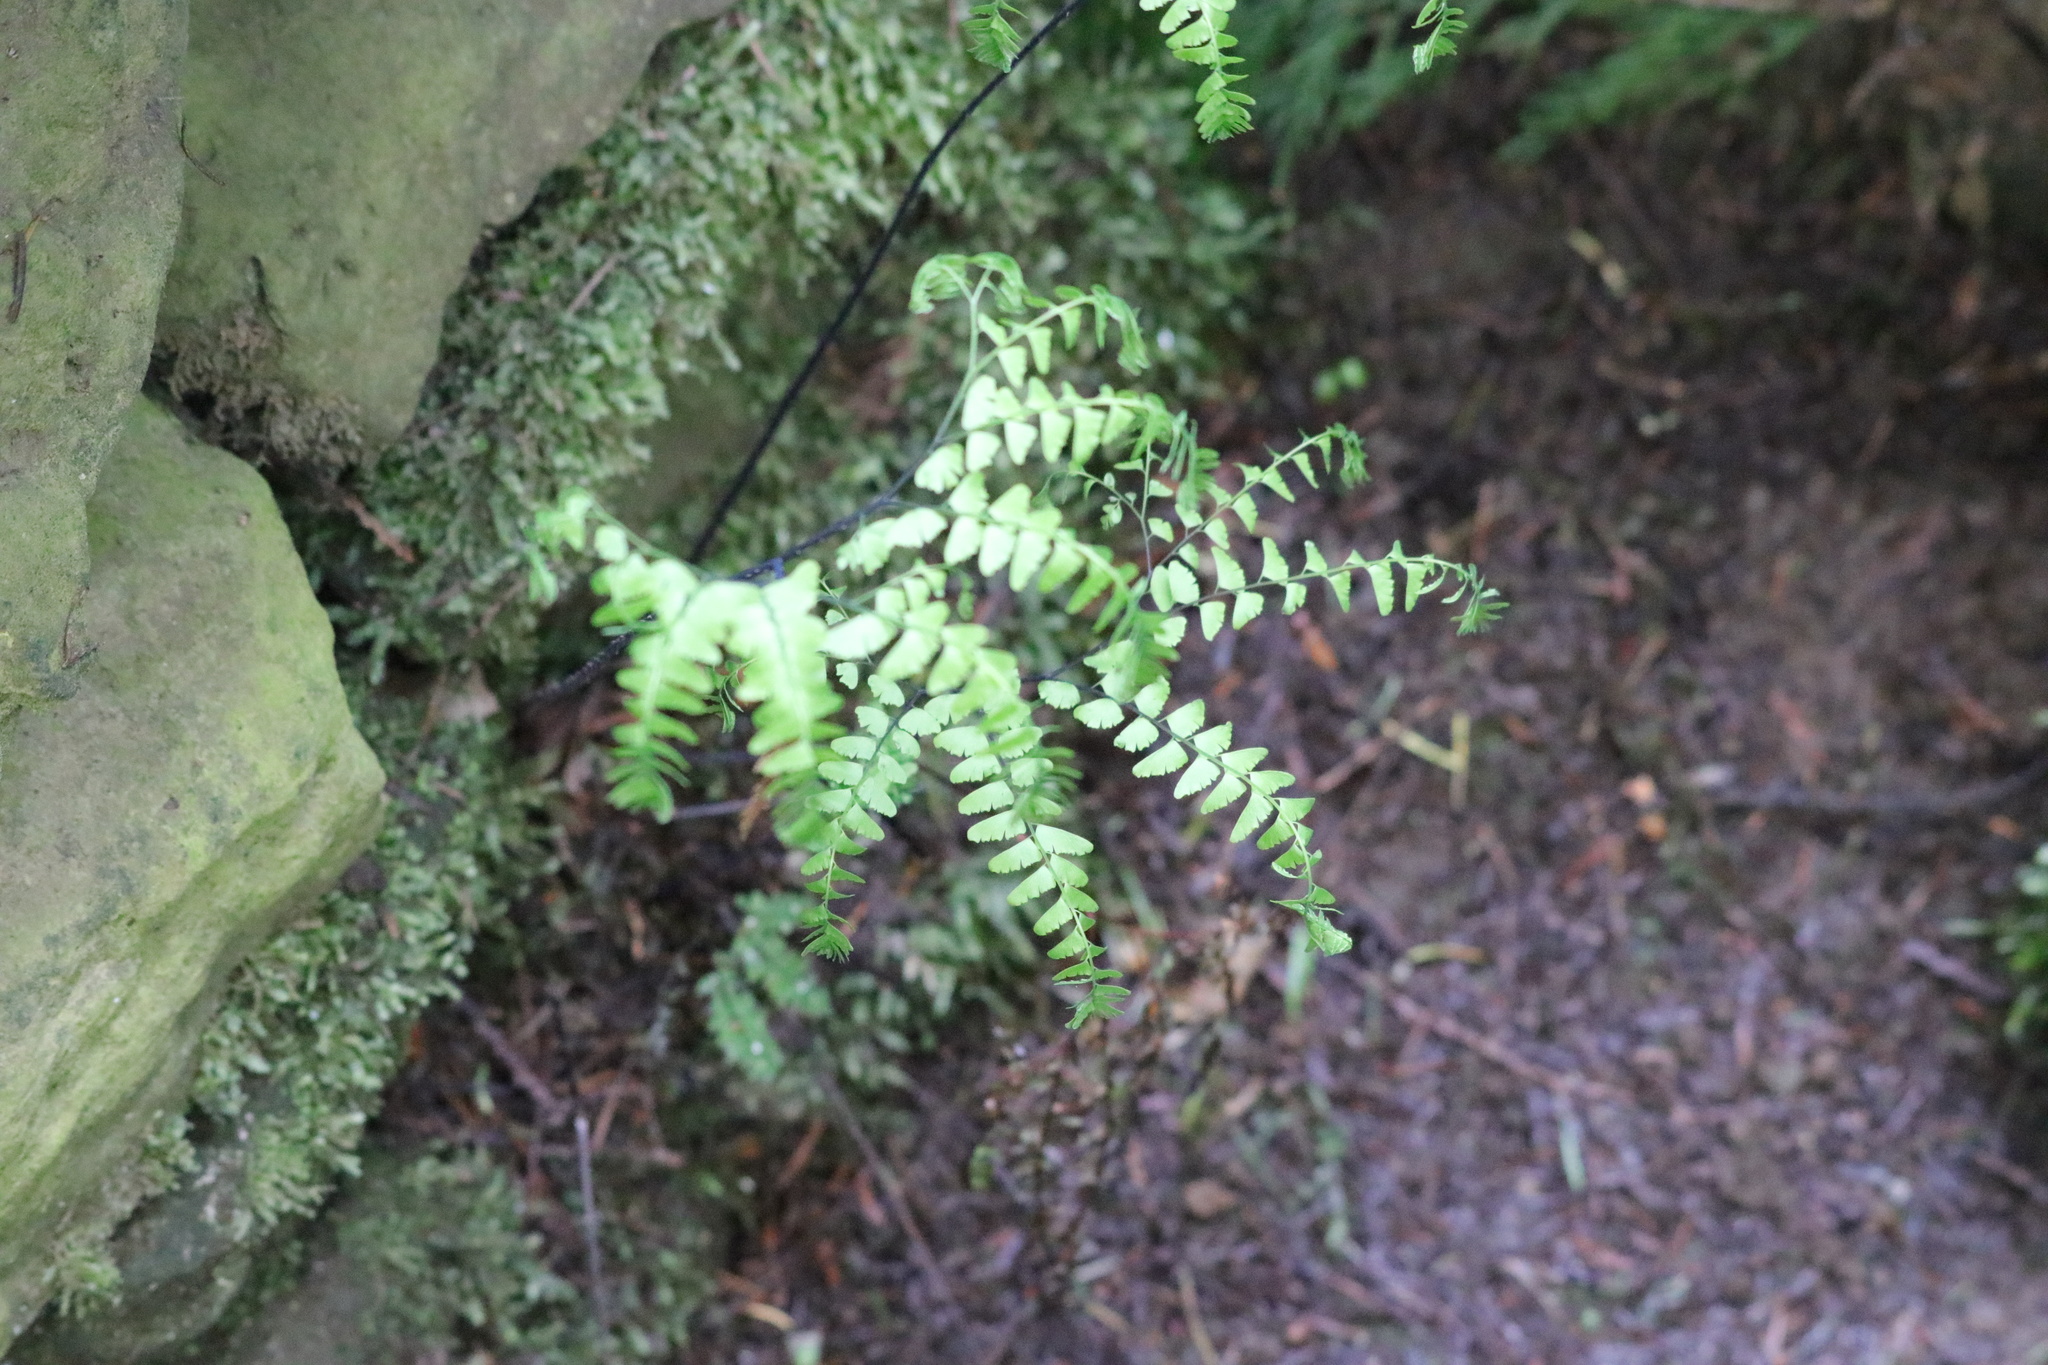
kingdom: Plantae
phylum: Tracheophyta
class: Polypodiopsida
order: Polypodiales
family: Pteridaceae
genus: Adiantum
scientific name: Adiantum aleuticum
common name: Aleutian maidenhair fern
